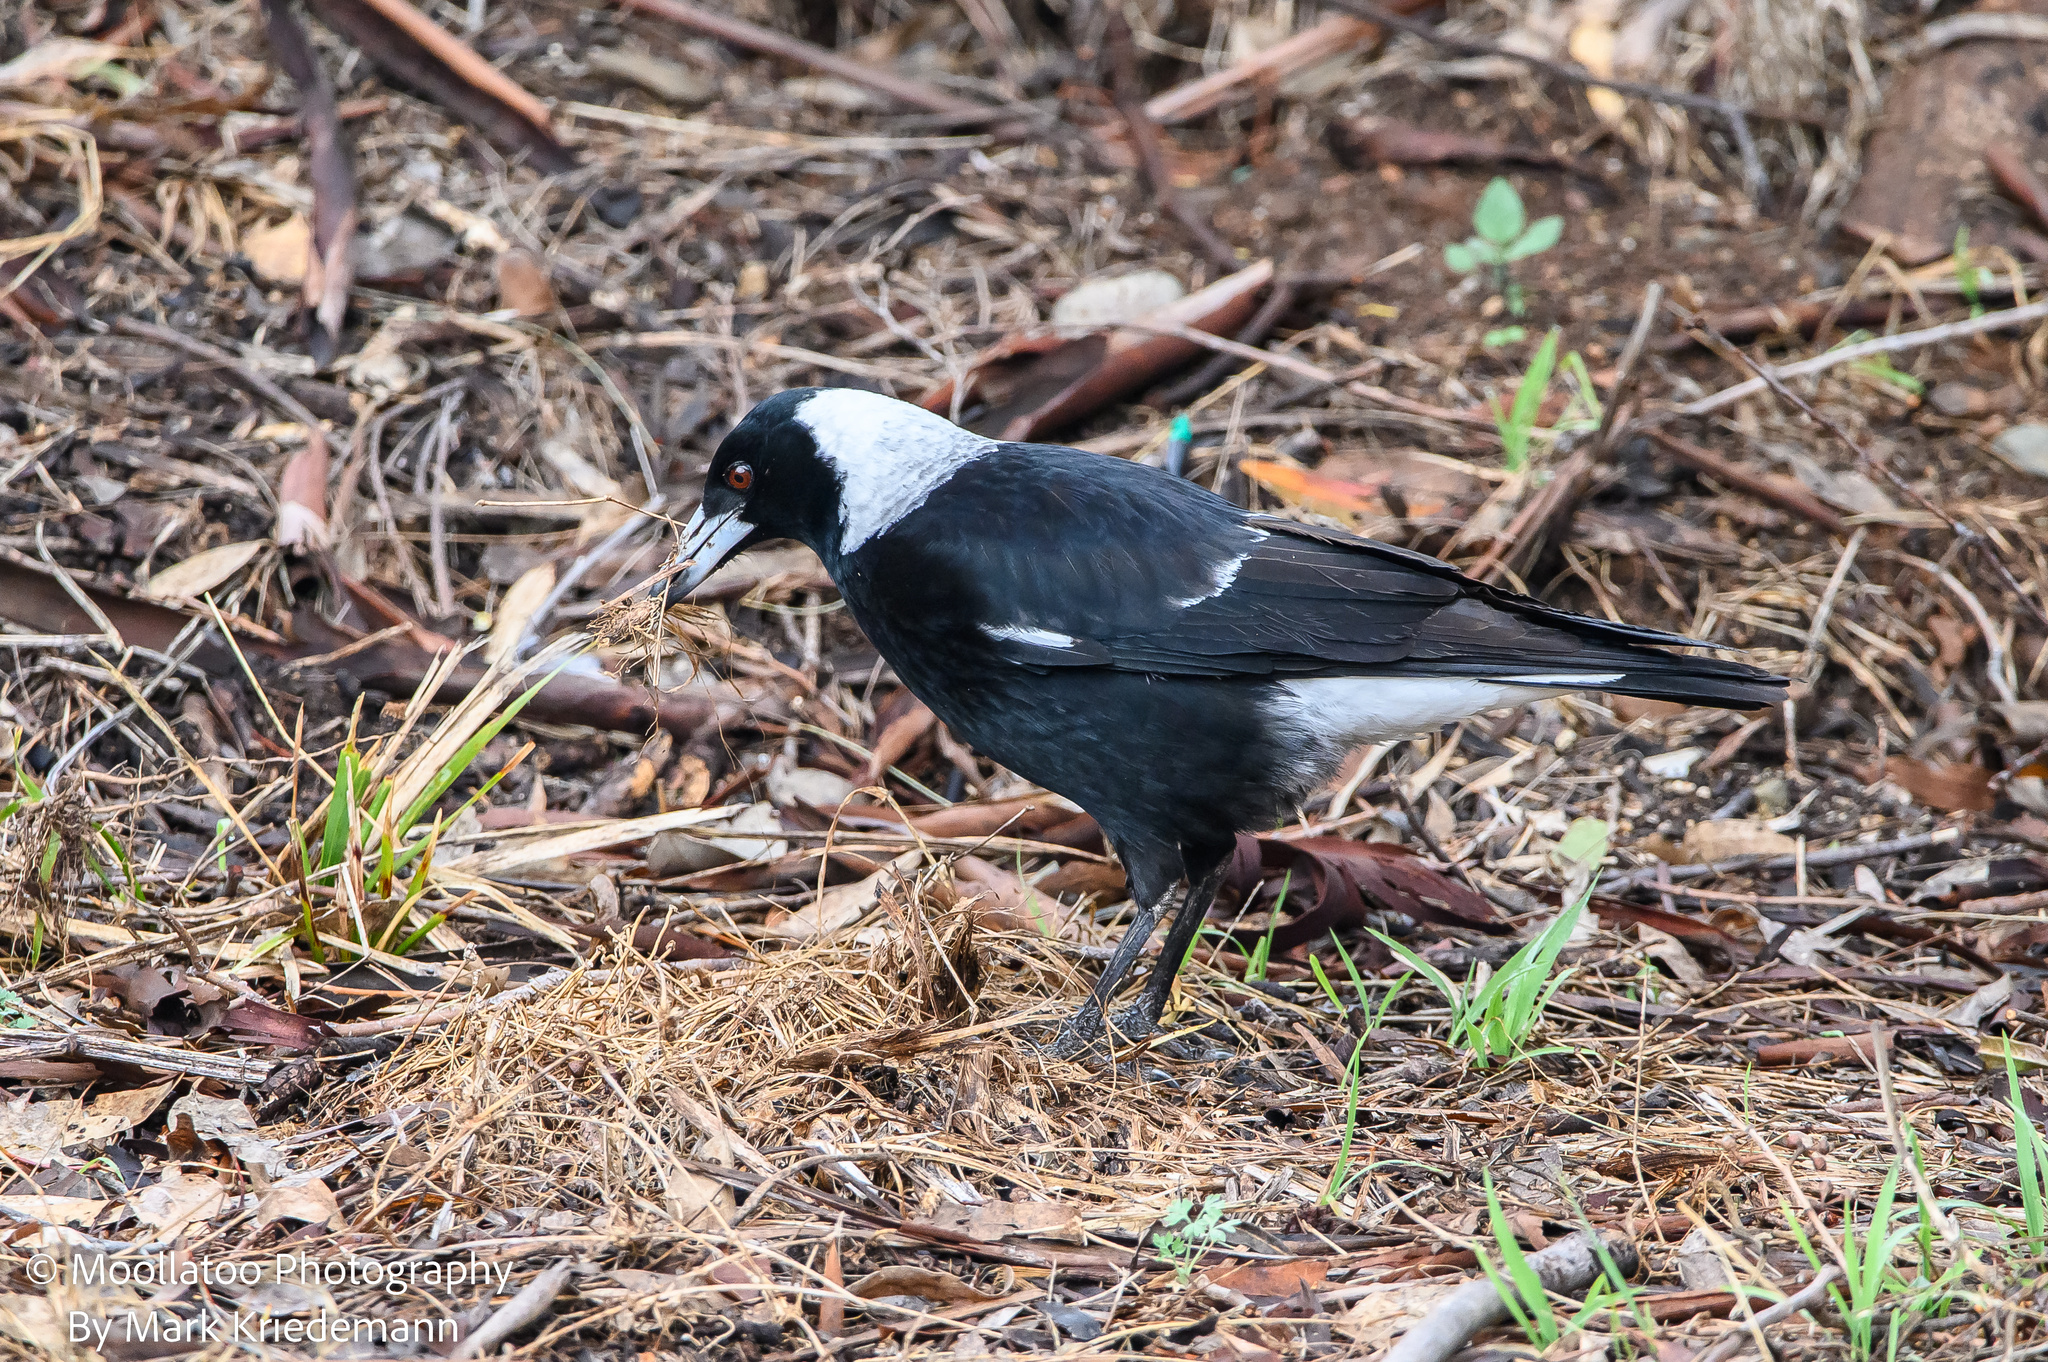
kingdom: Animalia
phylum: Chordata
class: Aves
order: Passeriformes
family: Cracticidae
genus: Gymnorhina
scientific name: Gymnorhina tibicen
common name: Australian magpie
